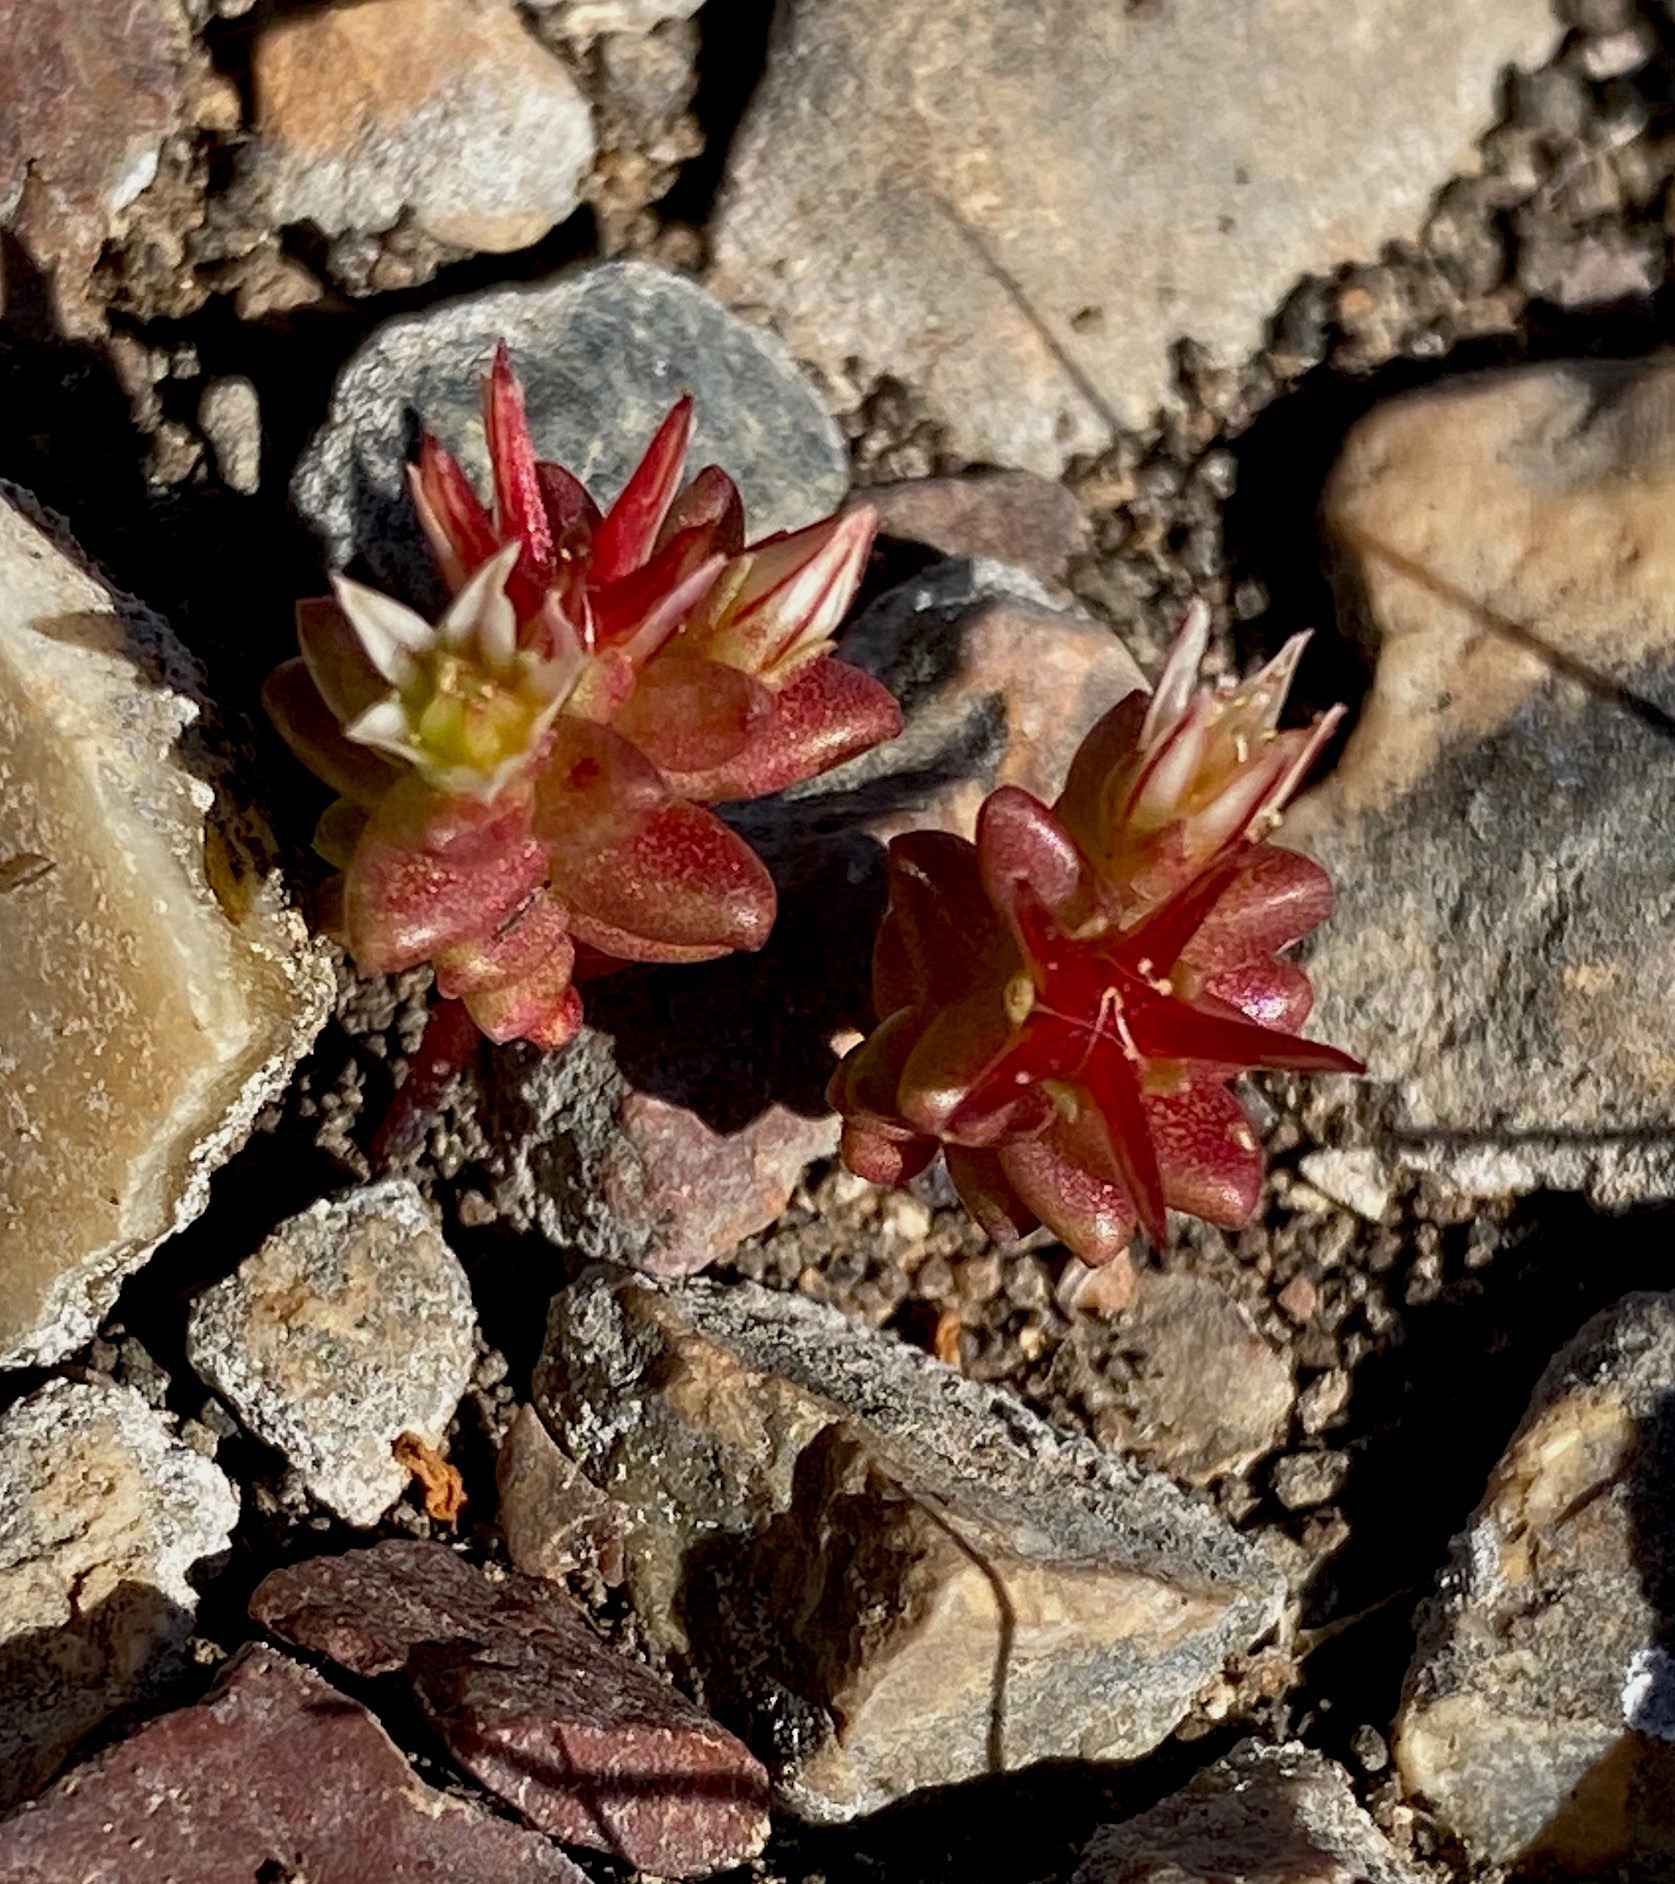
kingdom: Plantae
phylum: Tracheophyta
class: Magnoliopsida
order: Saxifragales
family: Crassulaceae
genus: Sedum
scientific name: Sedum cespitosum
